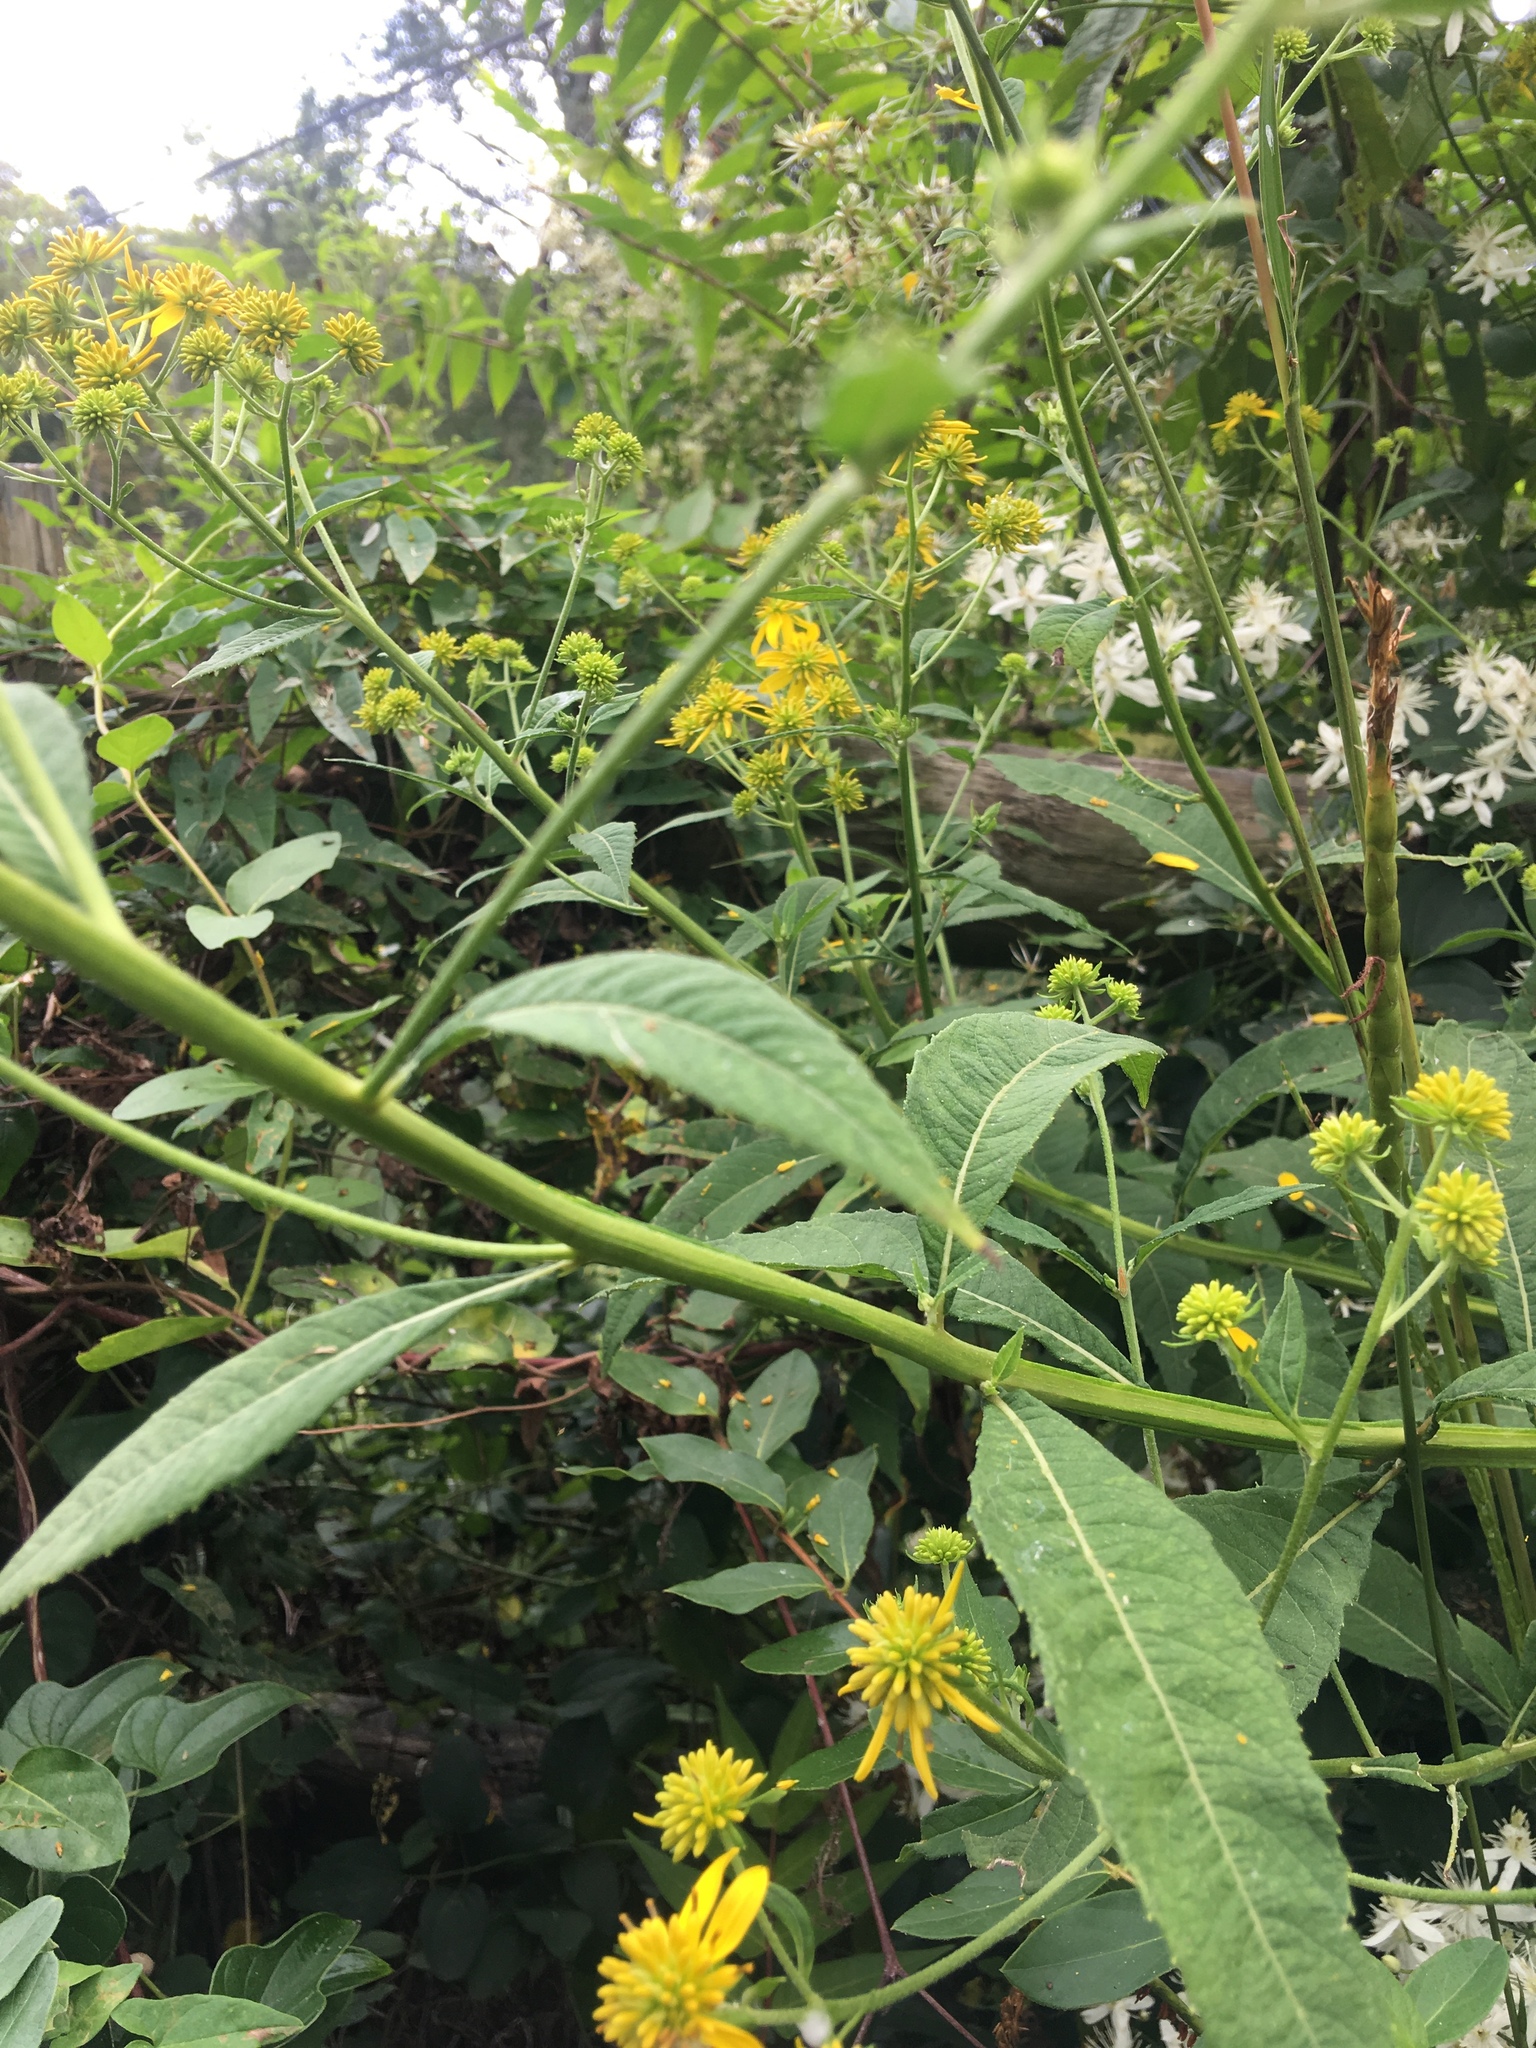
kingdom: Plantae
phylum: Tracheophyta
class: Magnoliopsida
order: Asterales
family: Asteraceae
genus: Verbesina
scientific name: Verbesina alternifolia
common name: Wingstem
